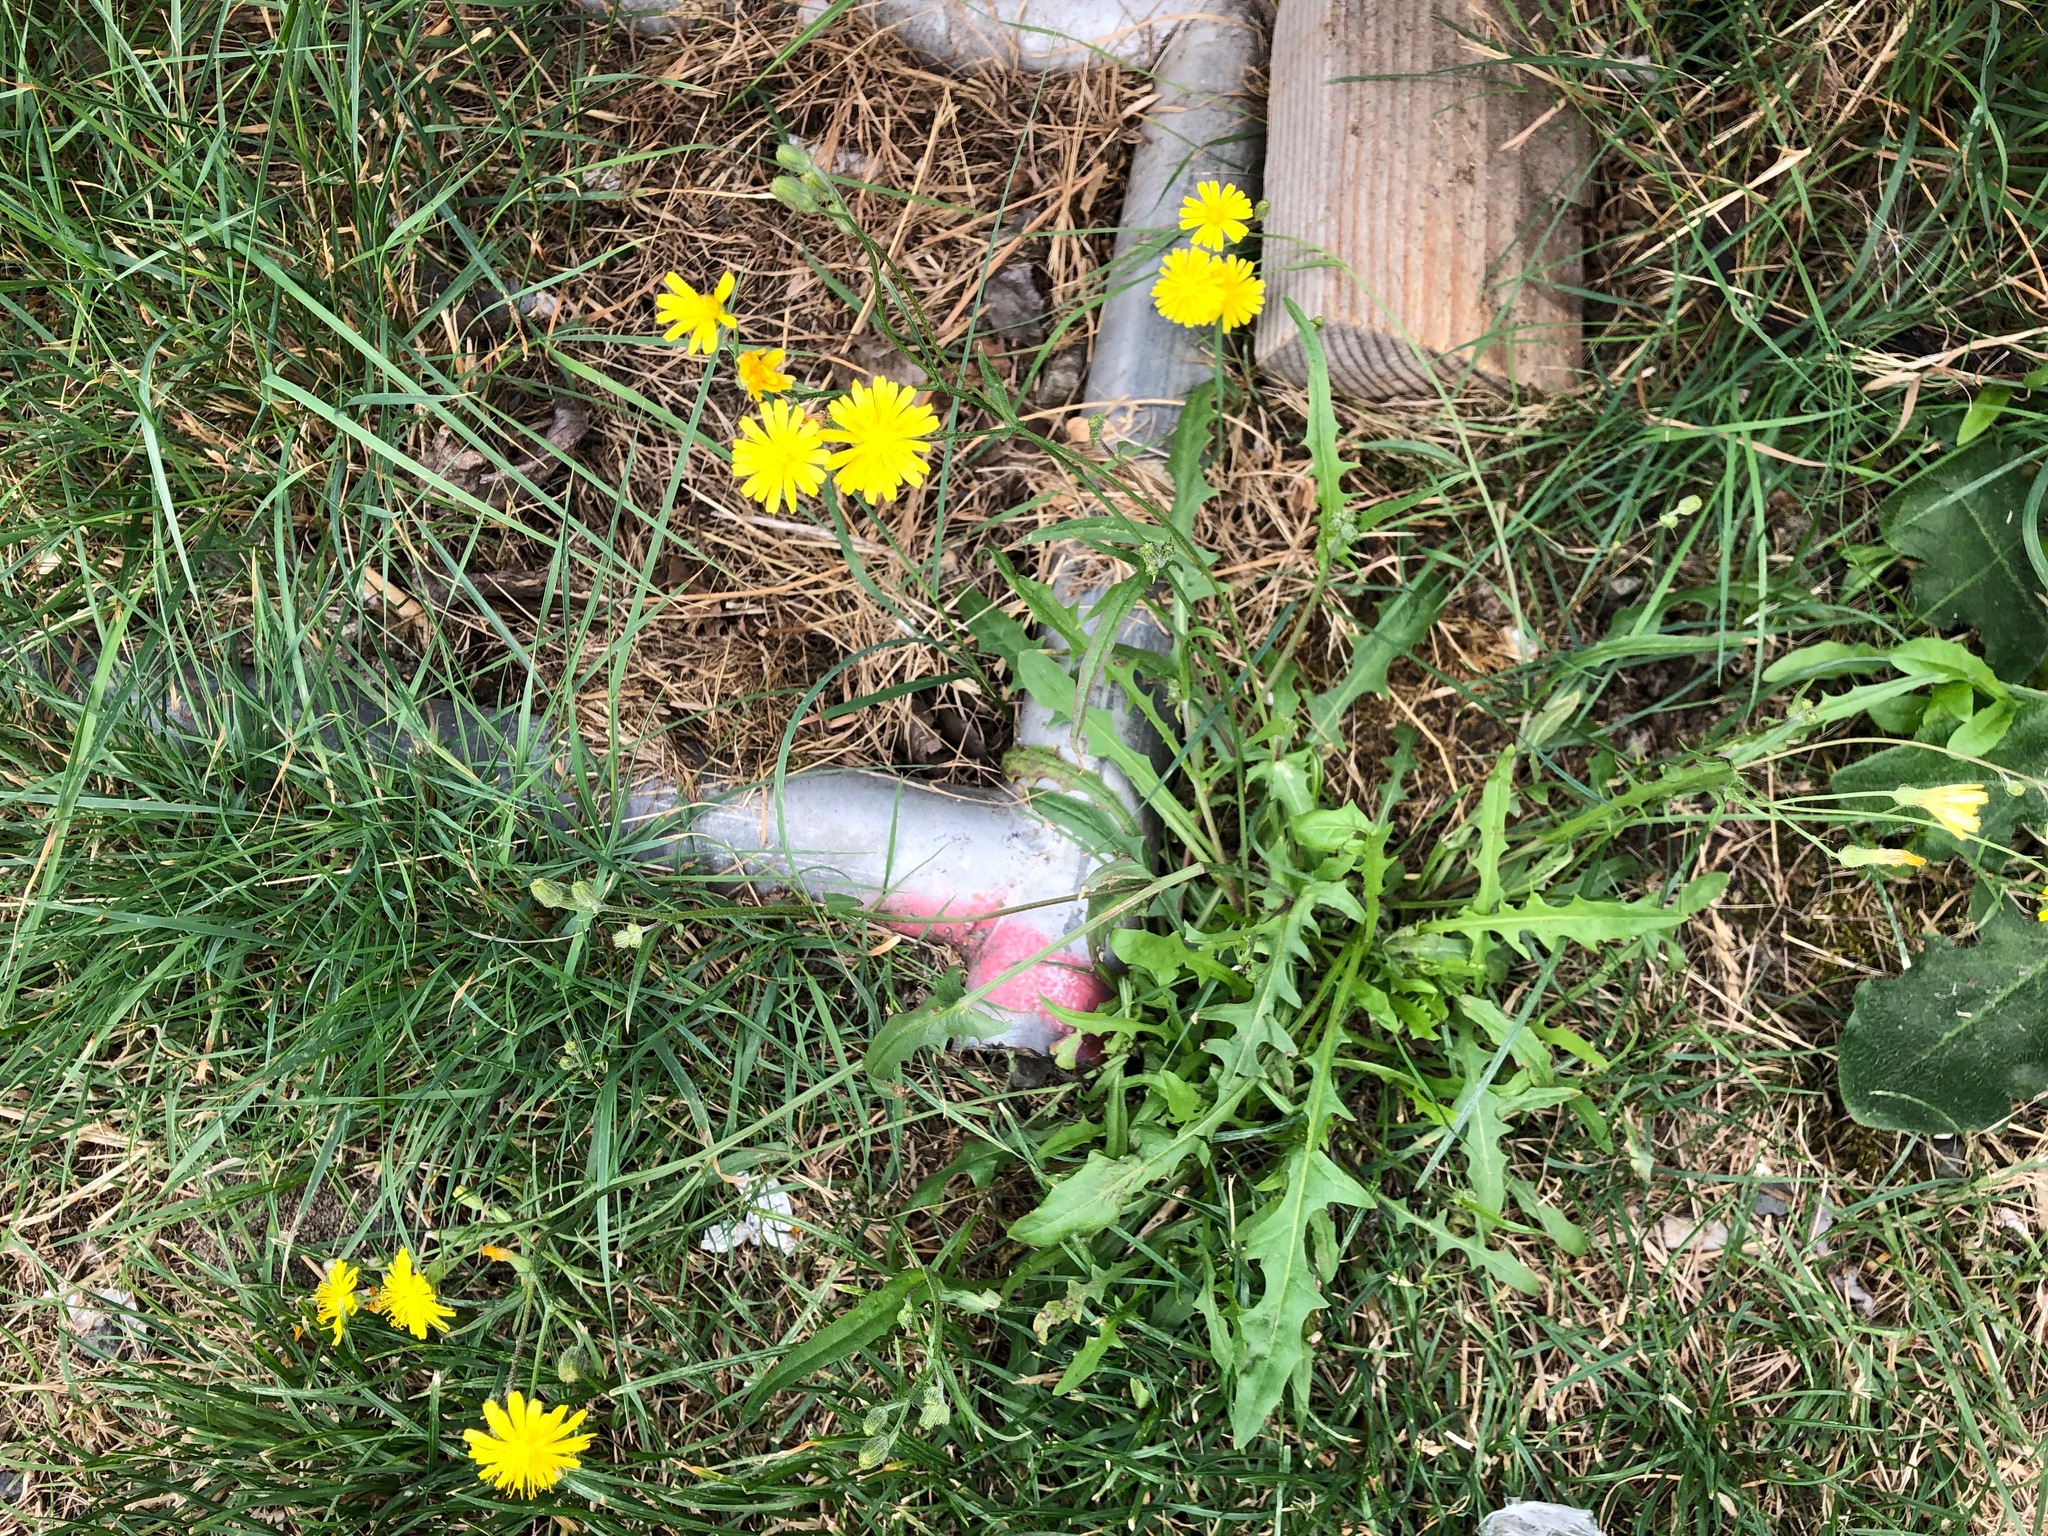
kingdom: Plantae
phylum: Tracheophyta
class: Magnoliopsida
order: Asterales
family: Asteraceae
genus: Crepis
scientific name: Crepis capillaris
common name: Smooth hawksbeard
